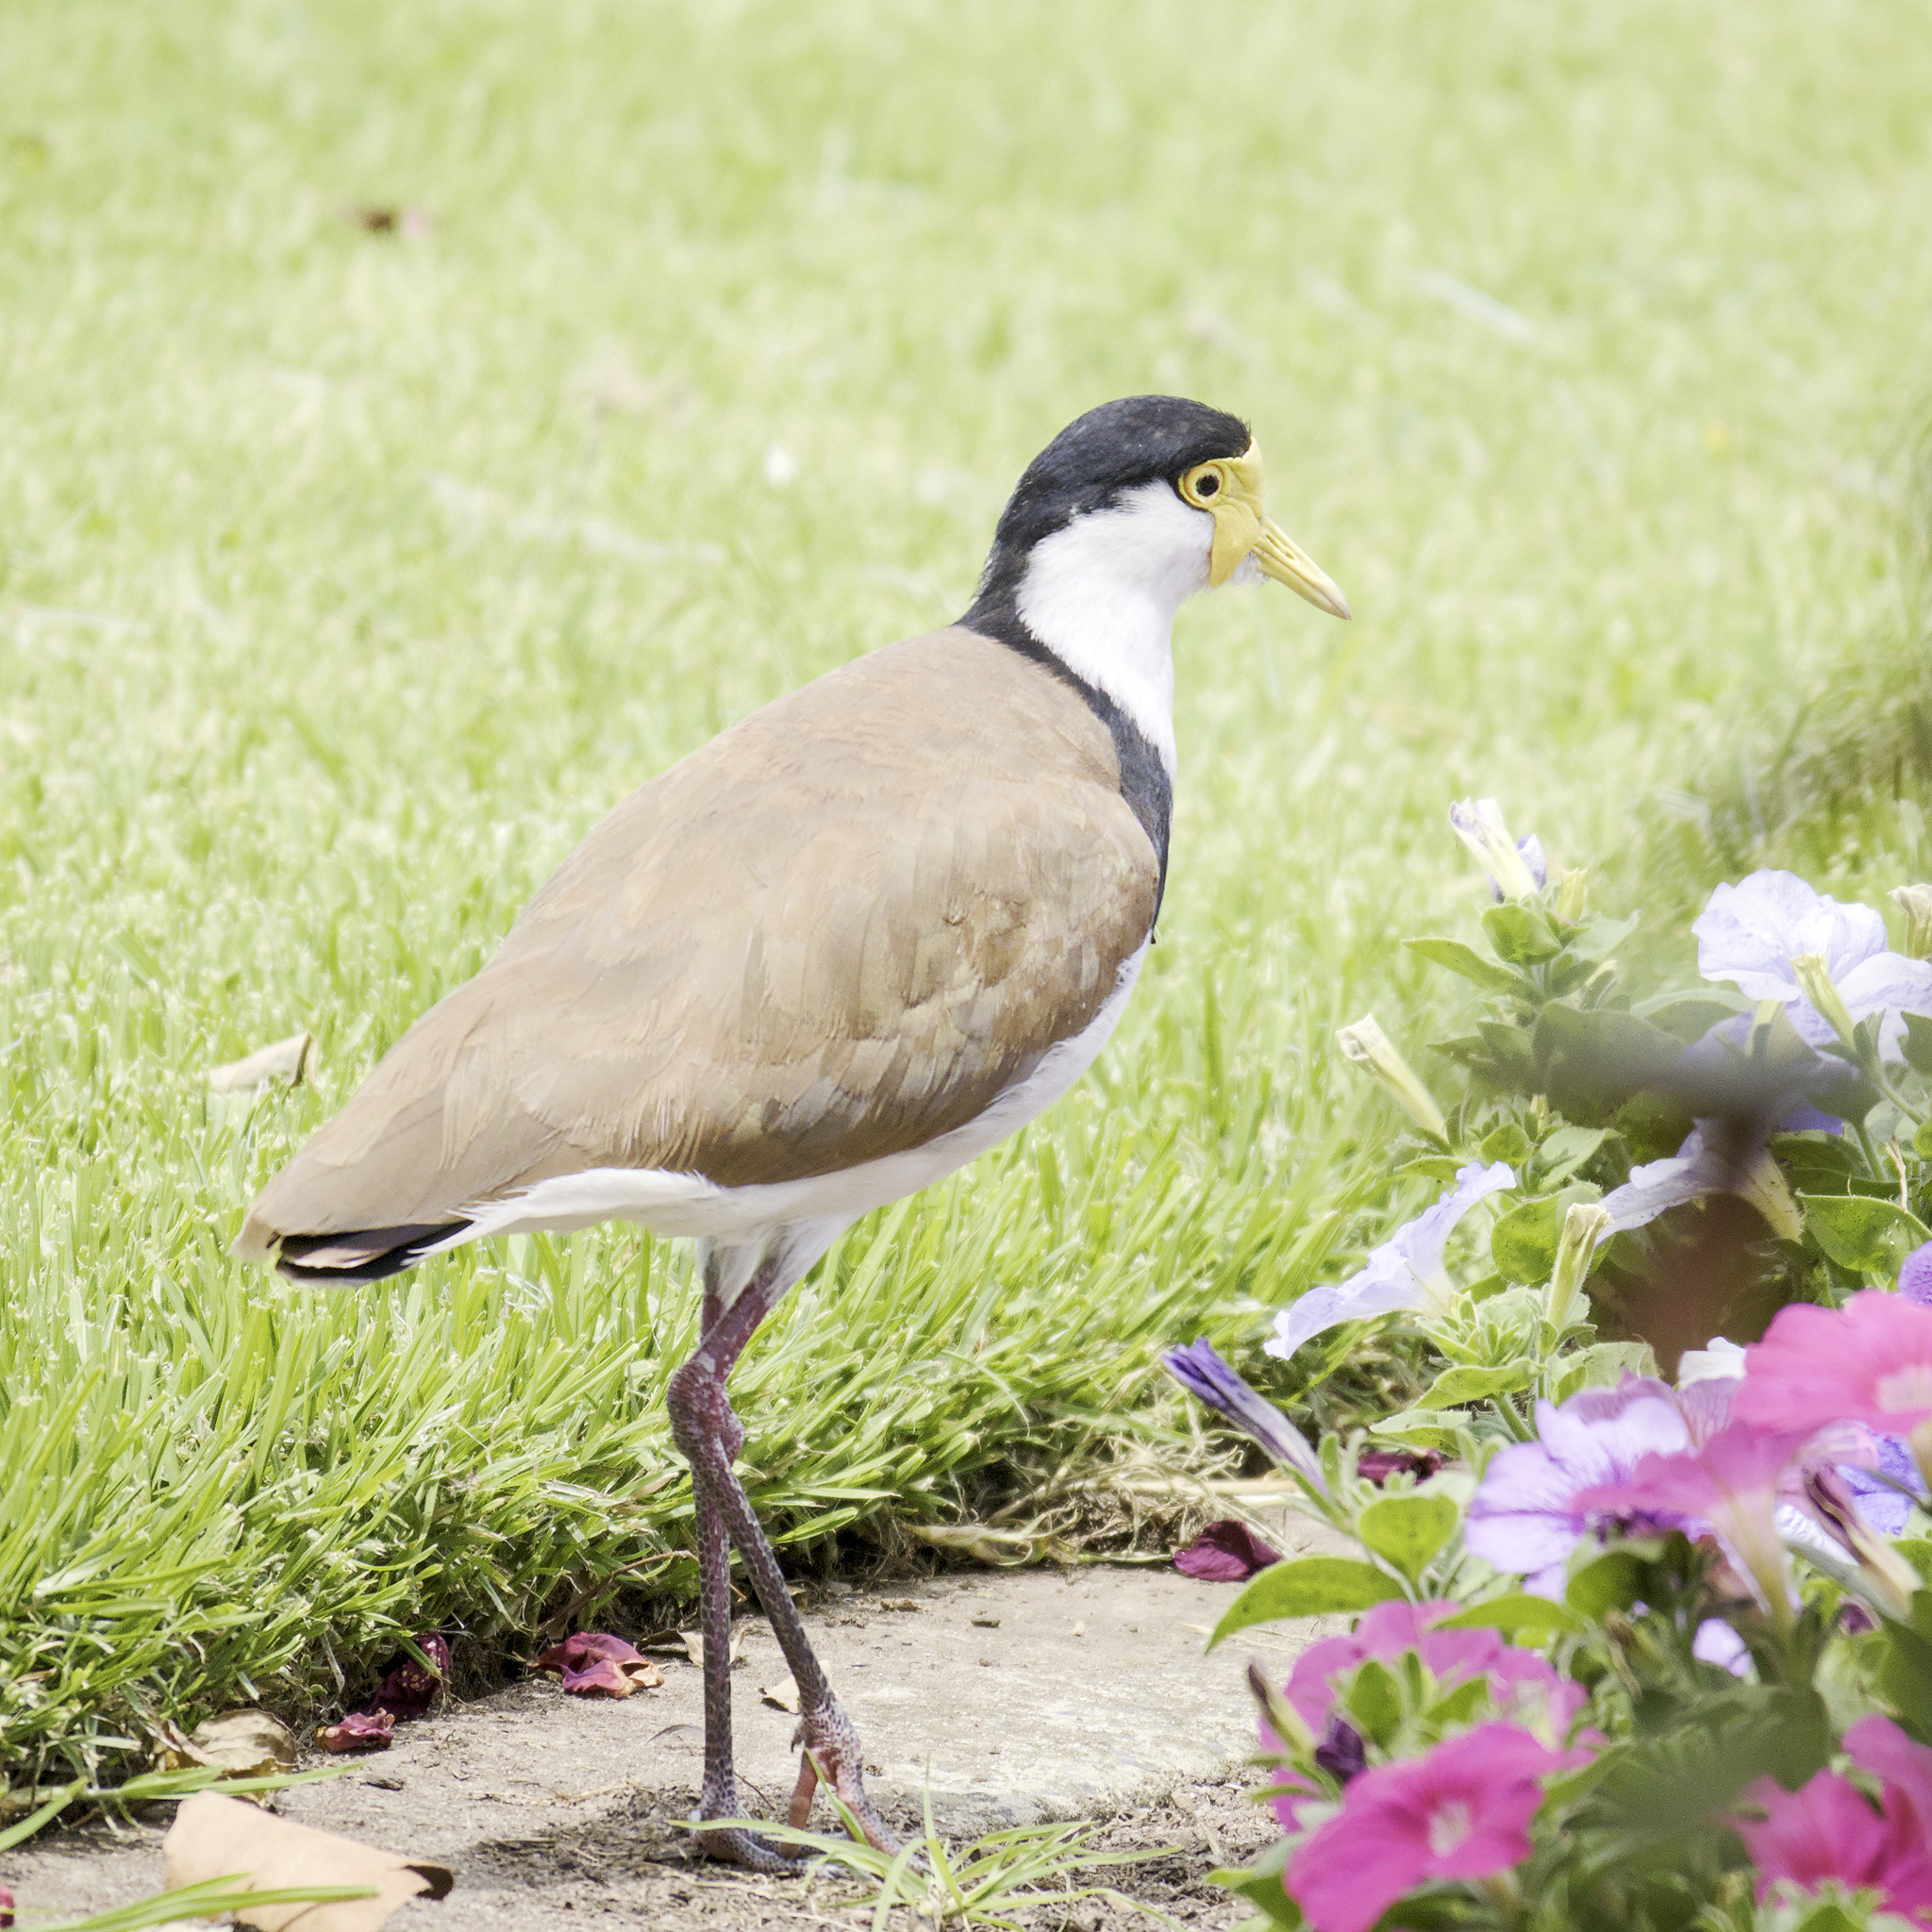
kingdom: Animalia
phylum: Chordata
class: Aves
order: Charadriiformes
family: Charadriidae
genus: Vanellus
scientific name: Vanellus miles
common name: Masked lapwing
